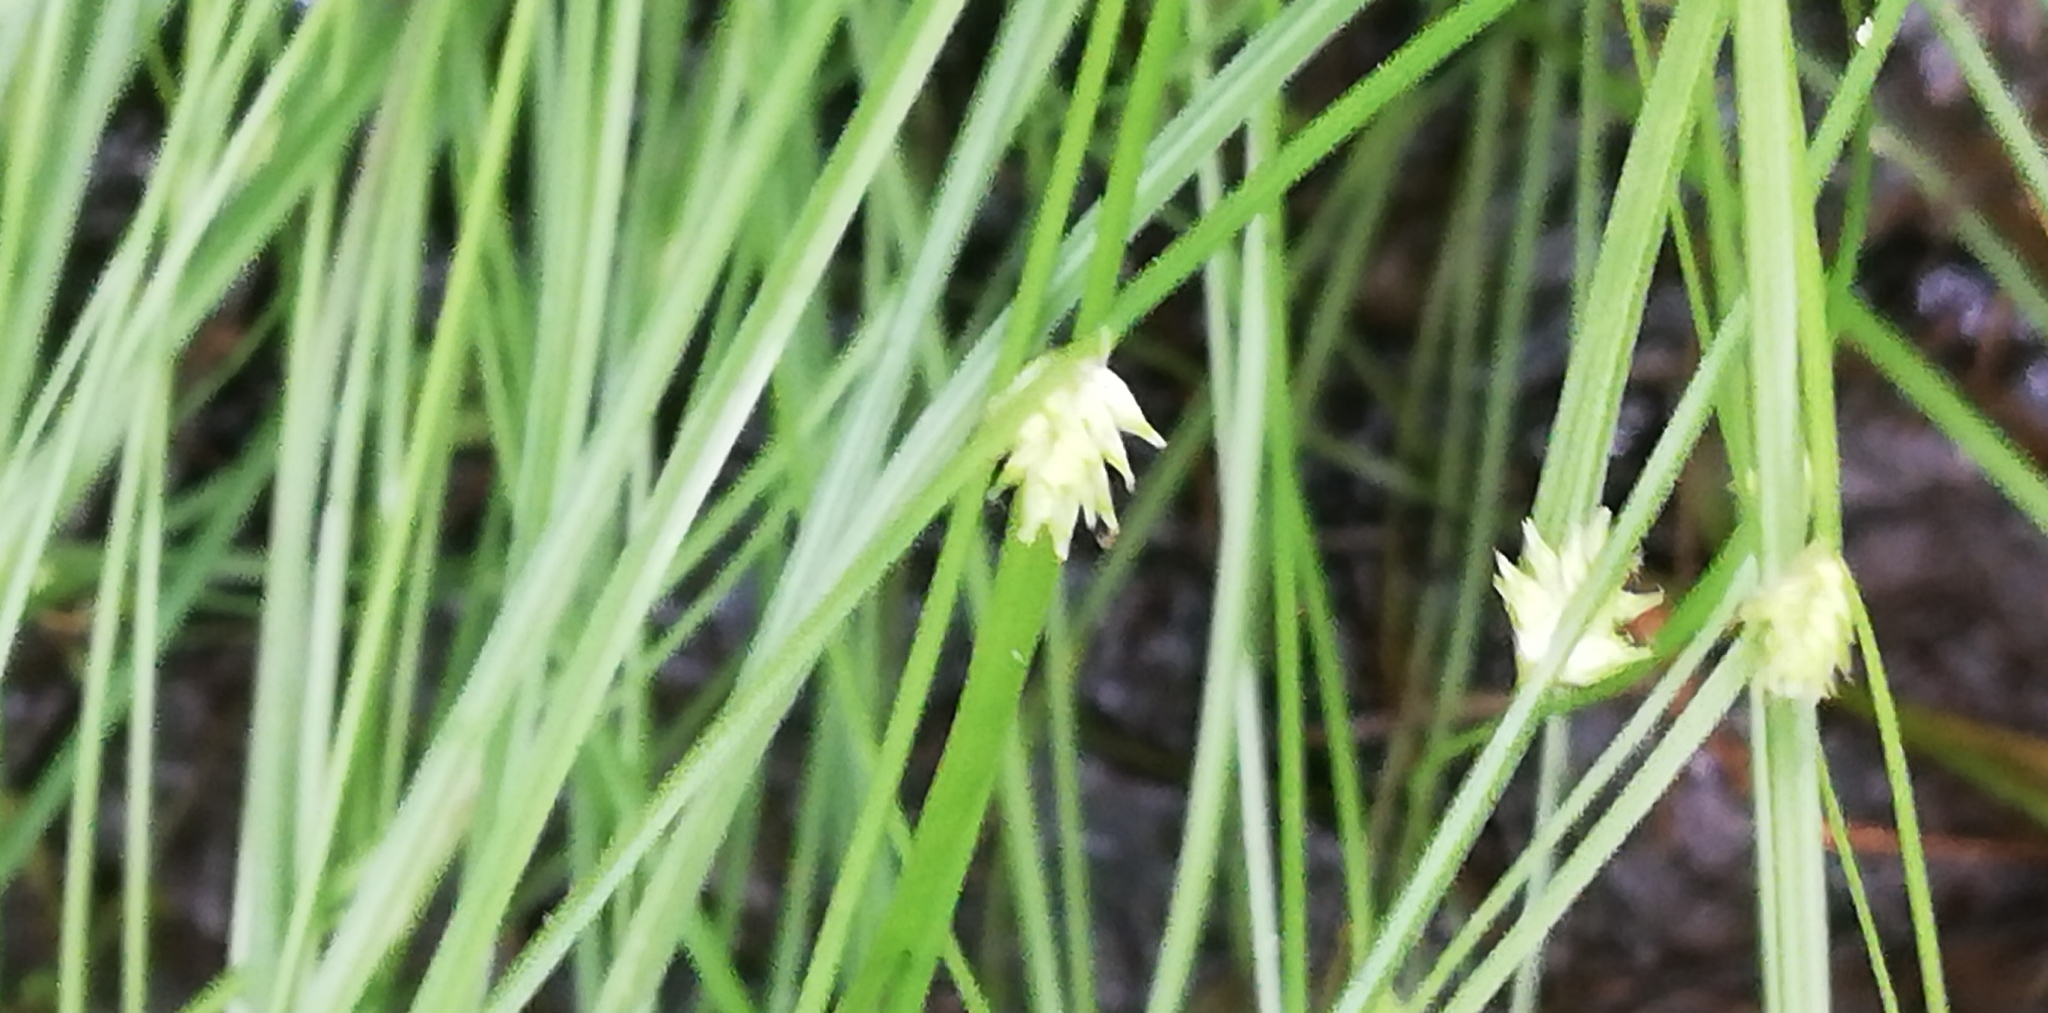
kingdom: Plantae
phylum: Tracheophyta
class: Liliopsida
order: Poales
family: Cyperaceae
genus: Carex
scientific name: Carex remota
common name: Remote sedge
